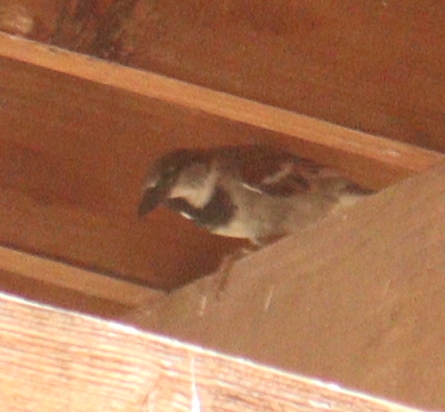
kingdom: Animalia
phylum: Chordata
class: Aves
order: Passeriformes
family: Passeridae
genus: Passer
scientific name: Passer domesticus
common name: House sparrow
